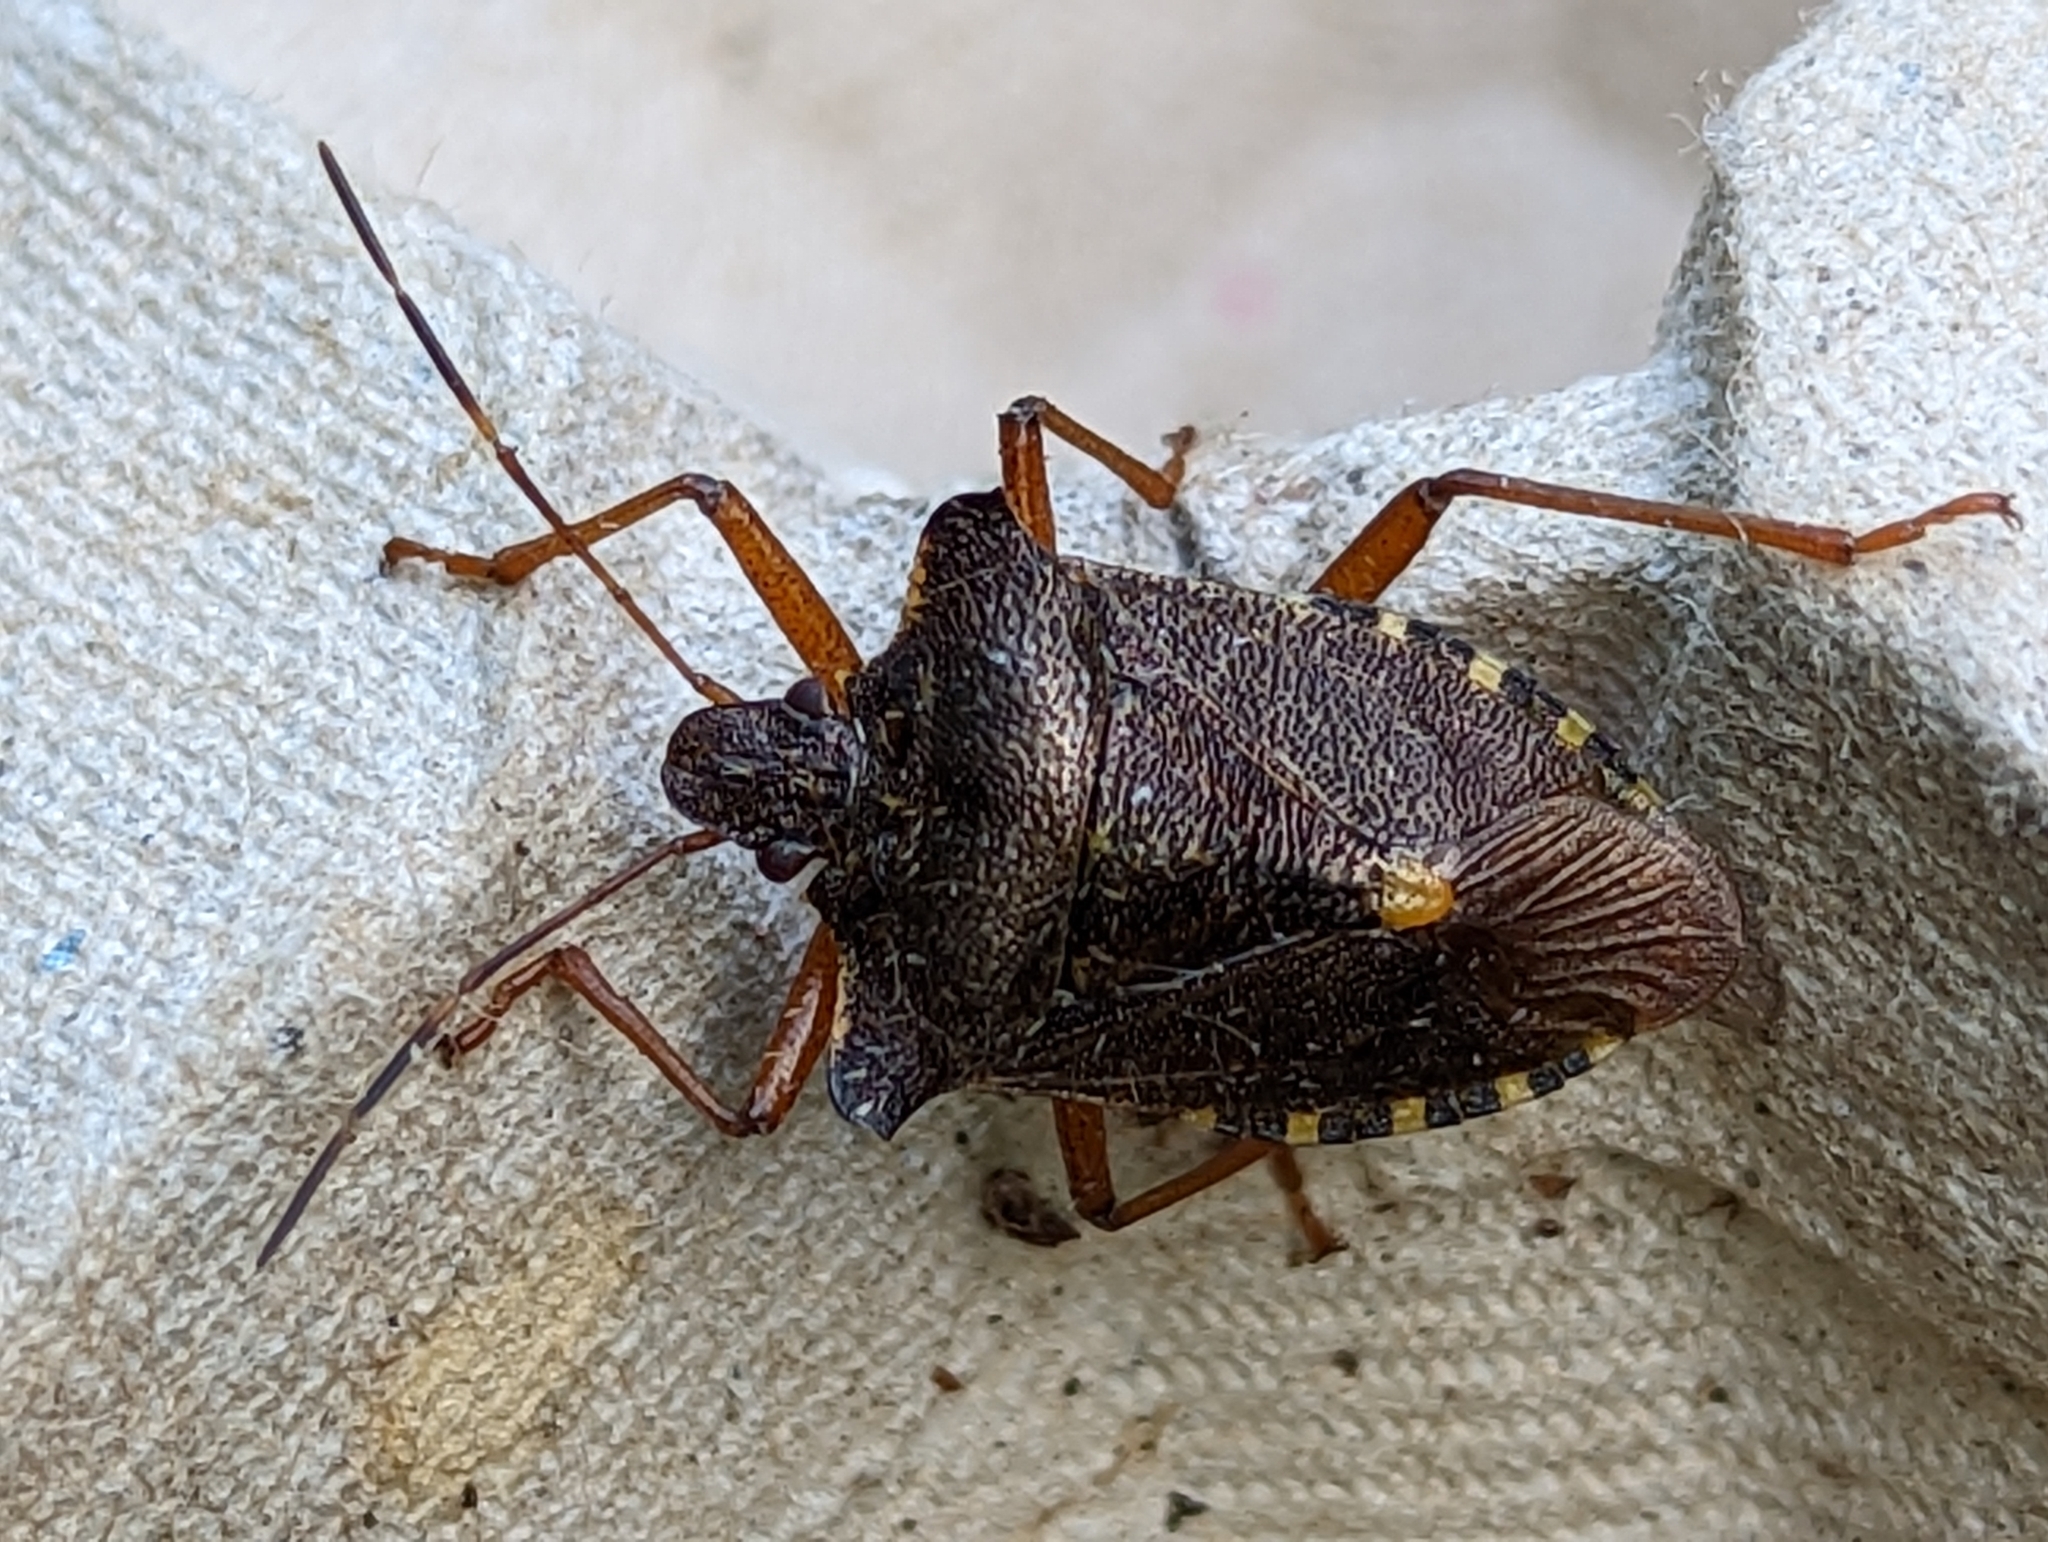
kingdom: Animalia
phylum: Arthropoda
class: Insecta
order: Hemiptera
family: Pentatomidae
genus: Pentatoma
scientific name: Pentatoma rufipes
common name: Forest bug
